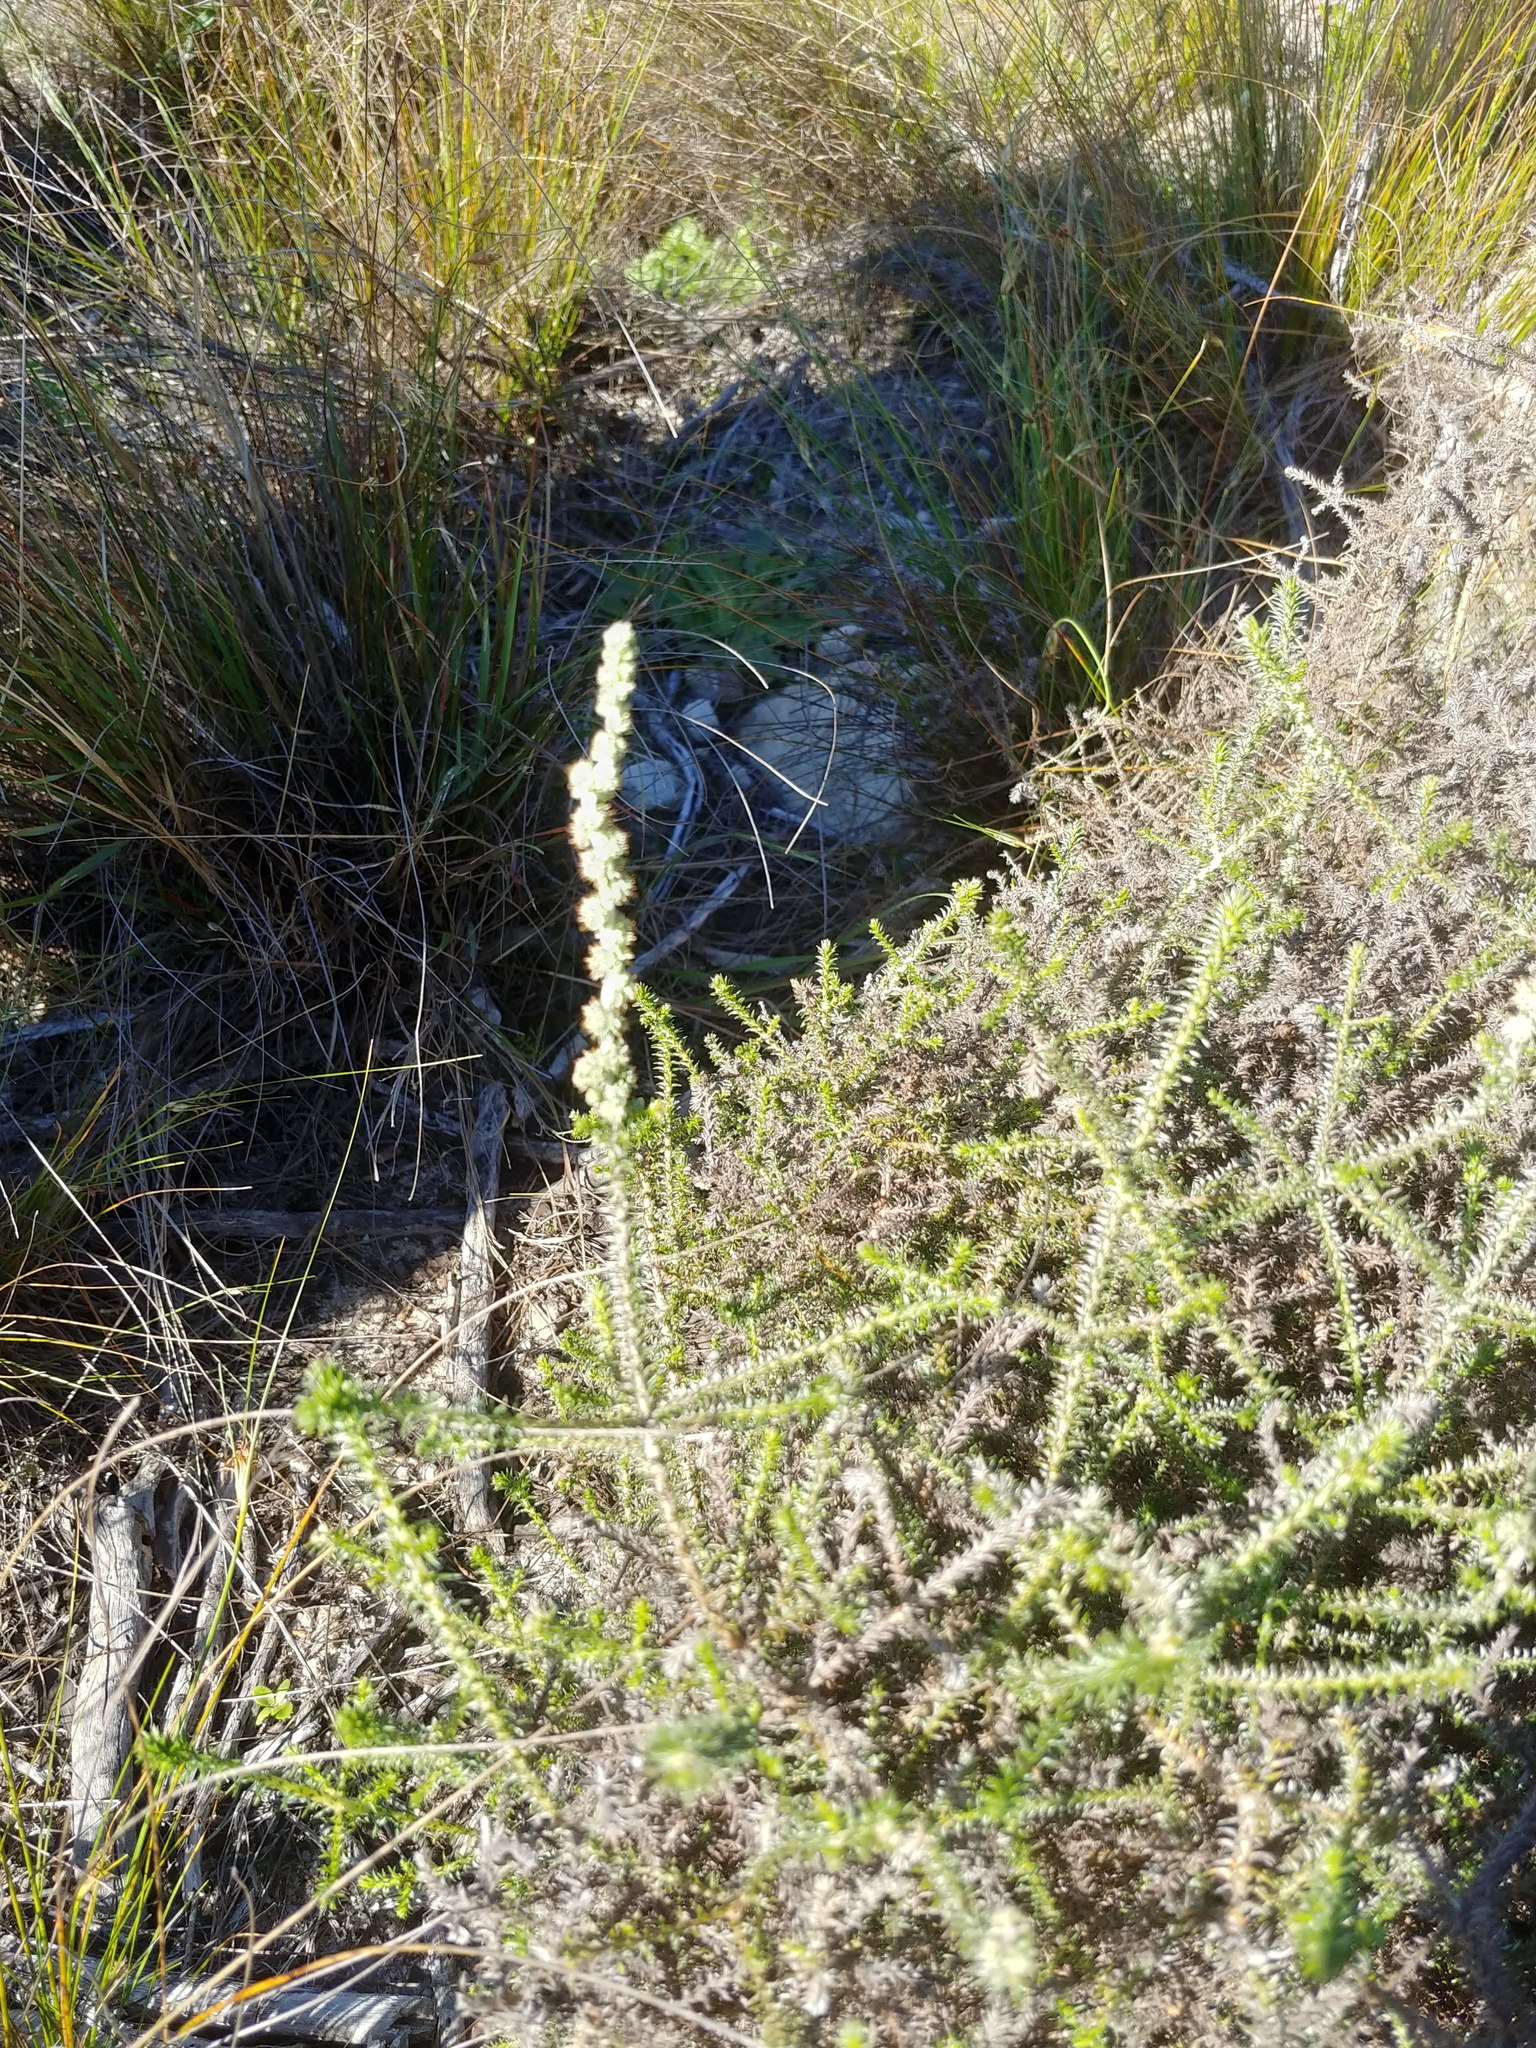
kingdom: Plantae
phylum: Tracheophyta
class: Magnoliopsida
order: Asterales
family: Asteraceae
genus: Seriphium
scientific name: Seriphium cinereum
